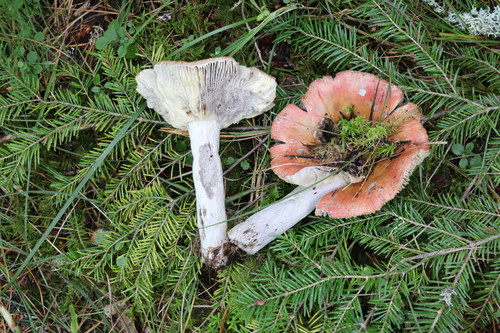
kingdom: Fungi
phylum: Basidiomycota
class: Agaricomycetes
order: Russulales
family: Russulaceae
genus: Russula
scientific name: Russula decolorans
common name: Copper brittlegill
